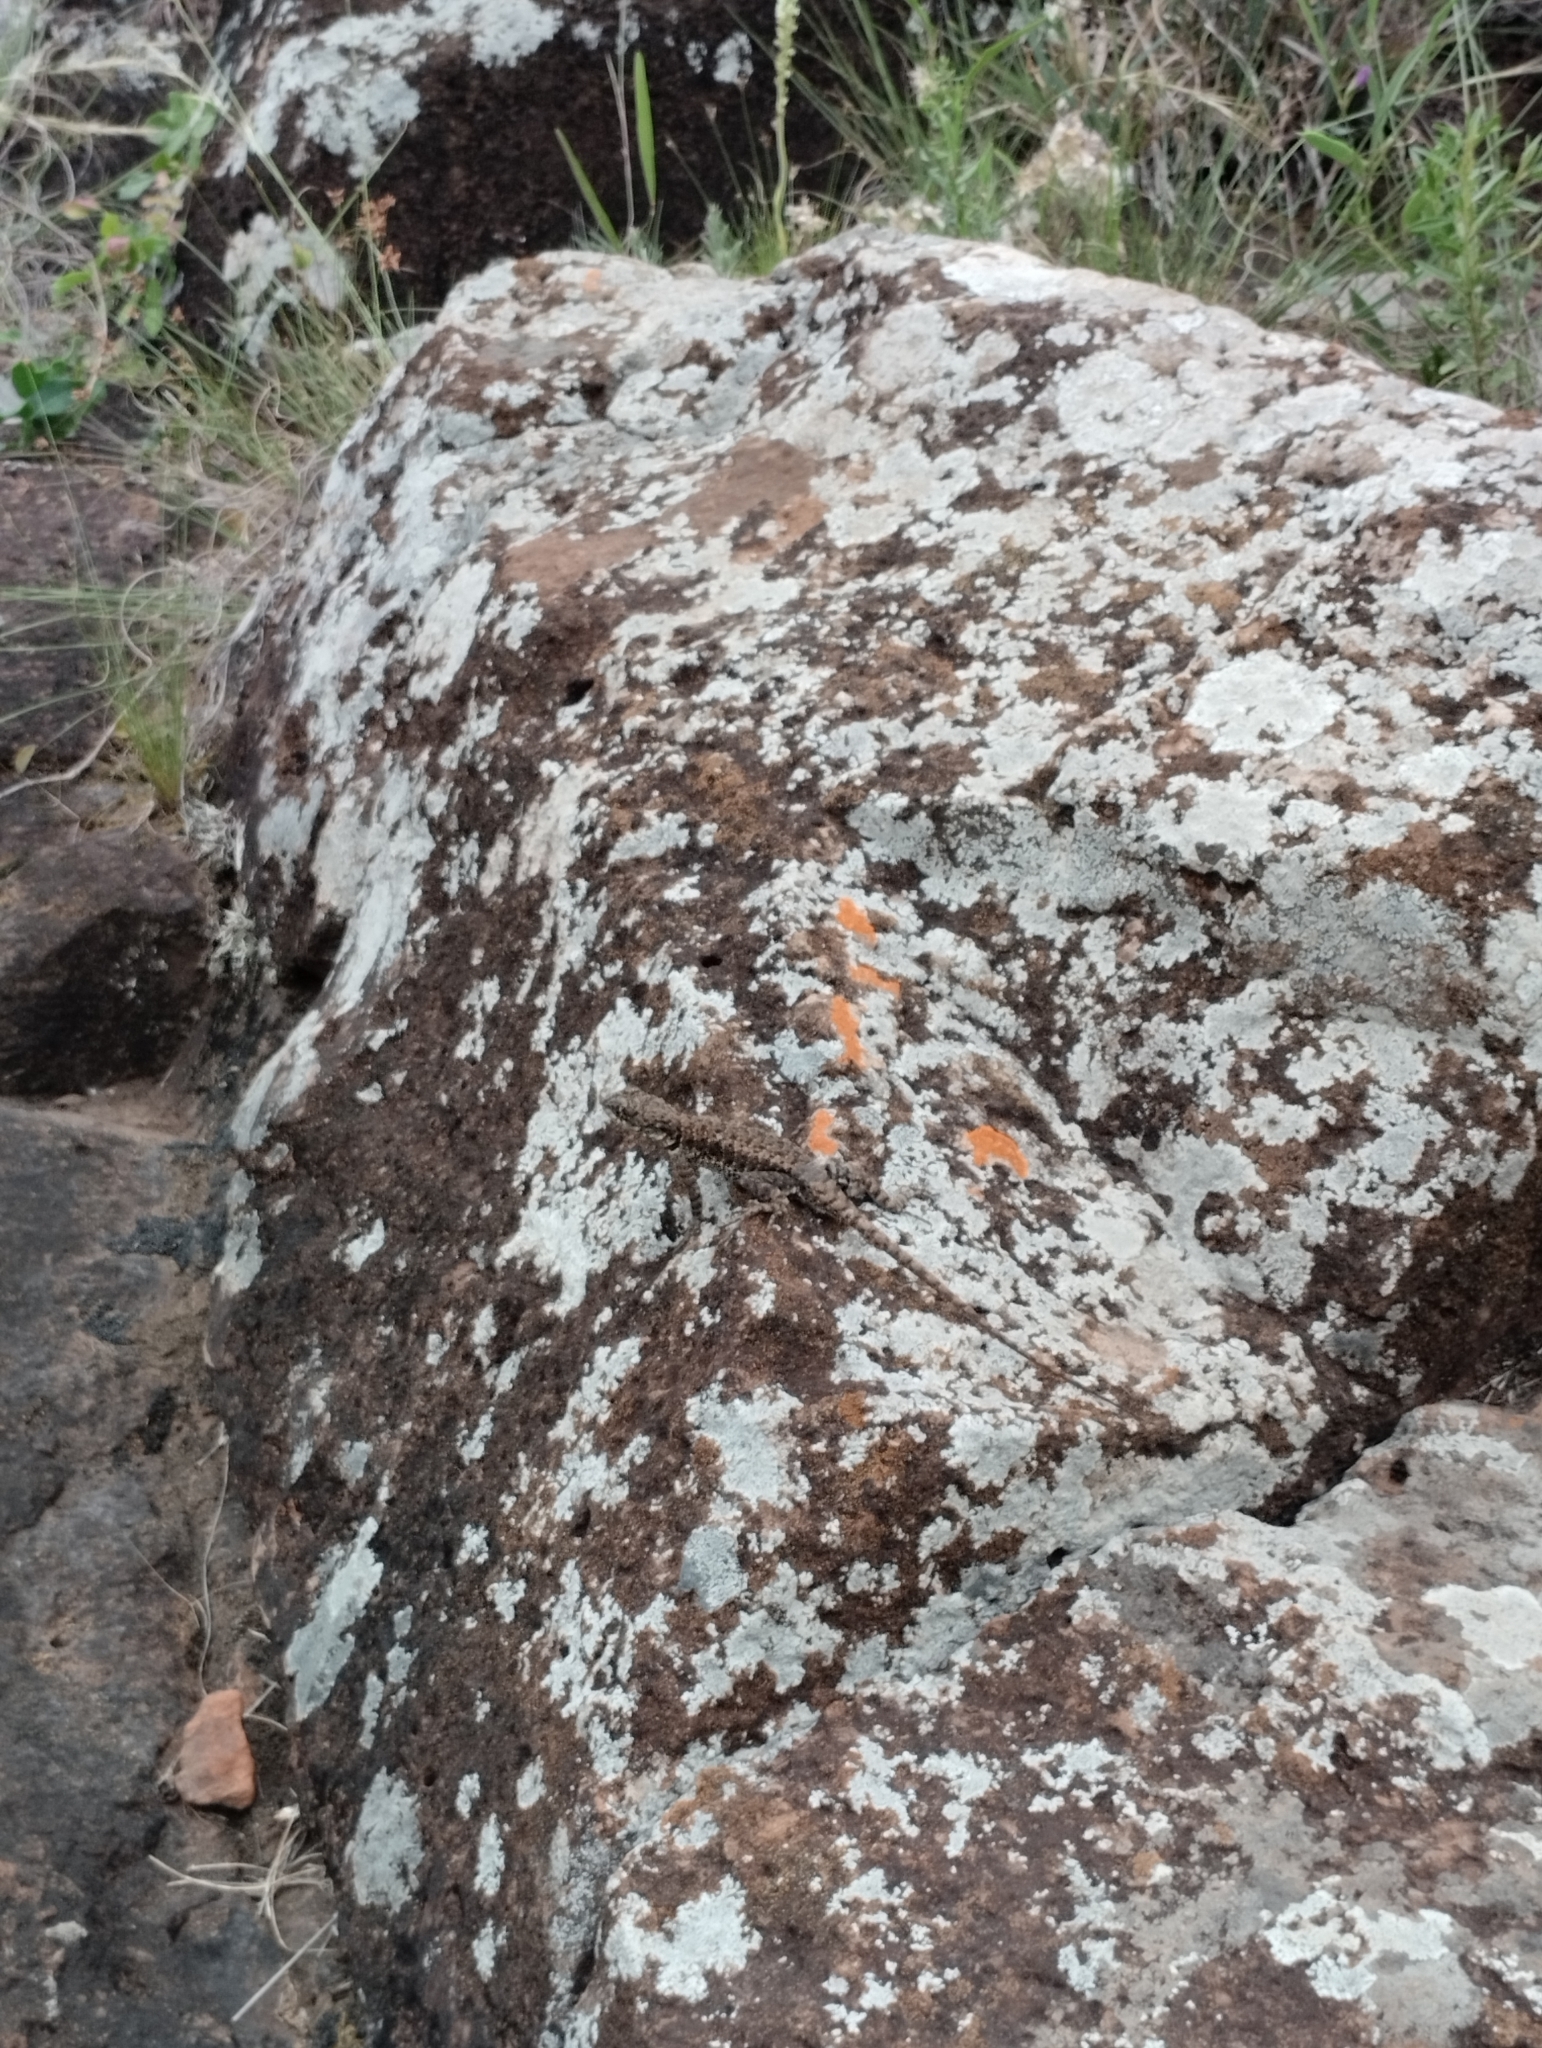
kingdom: Animalia
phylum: Chordata
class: Squamata
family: Tropiduridae
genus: Tropidurus
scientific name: Tropidurus torquatus
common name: Amazon lava lizard
